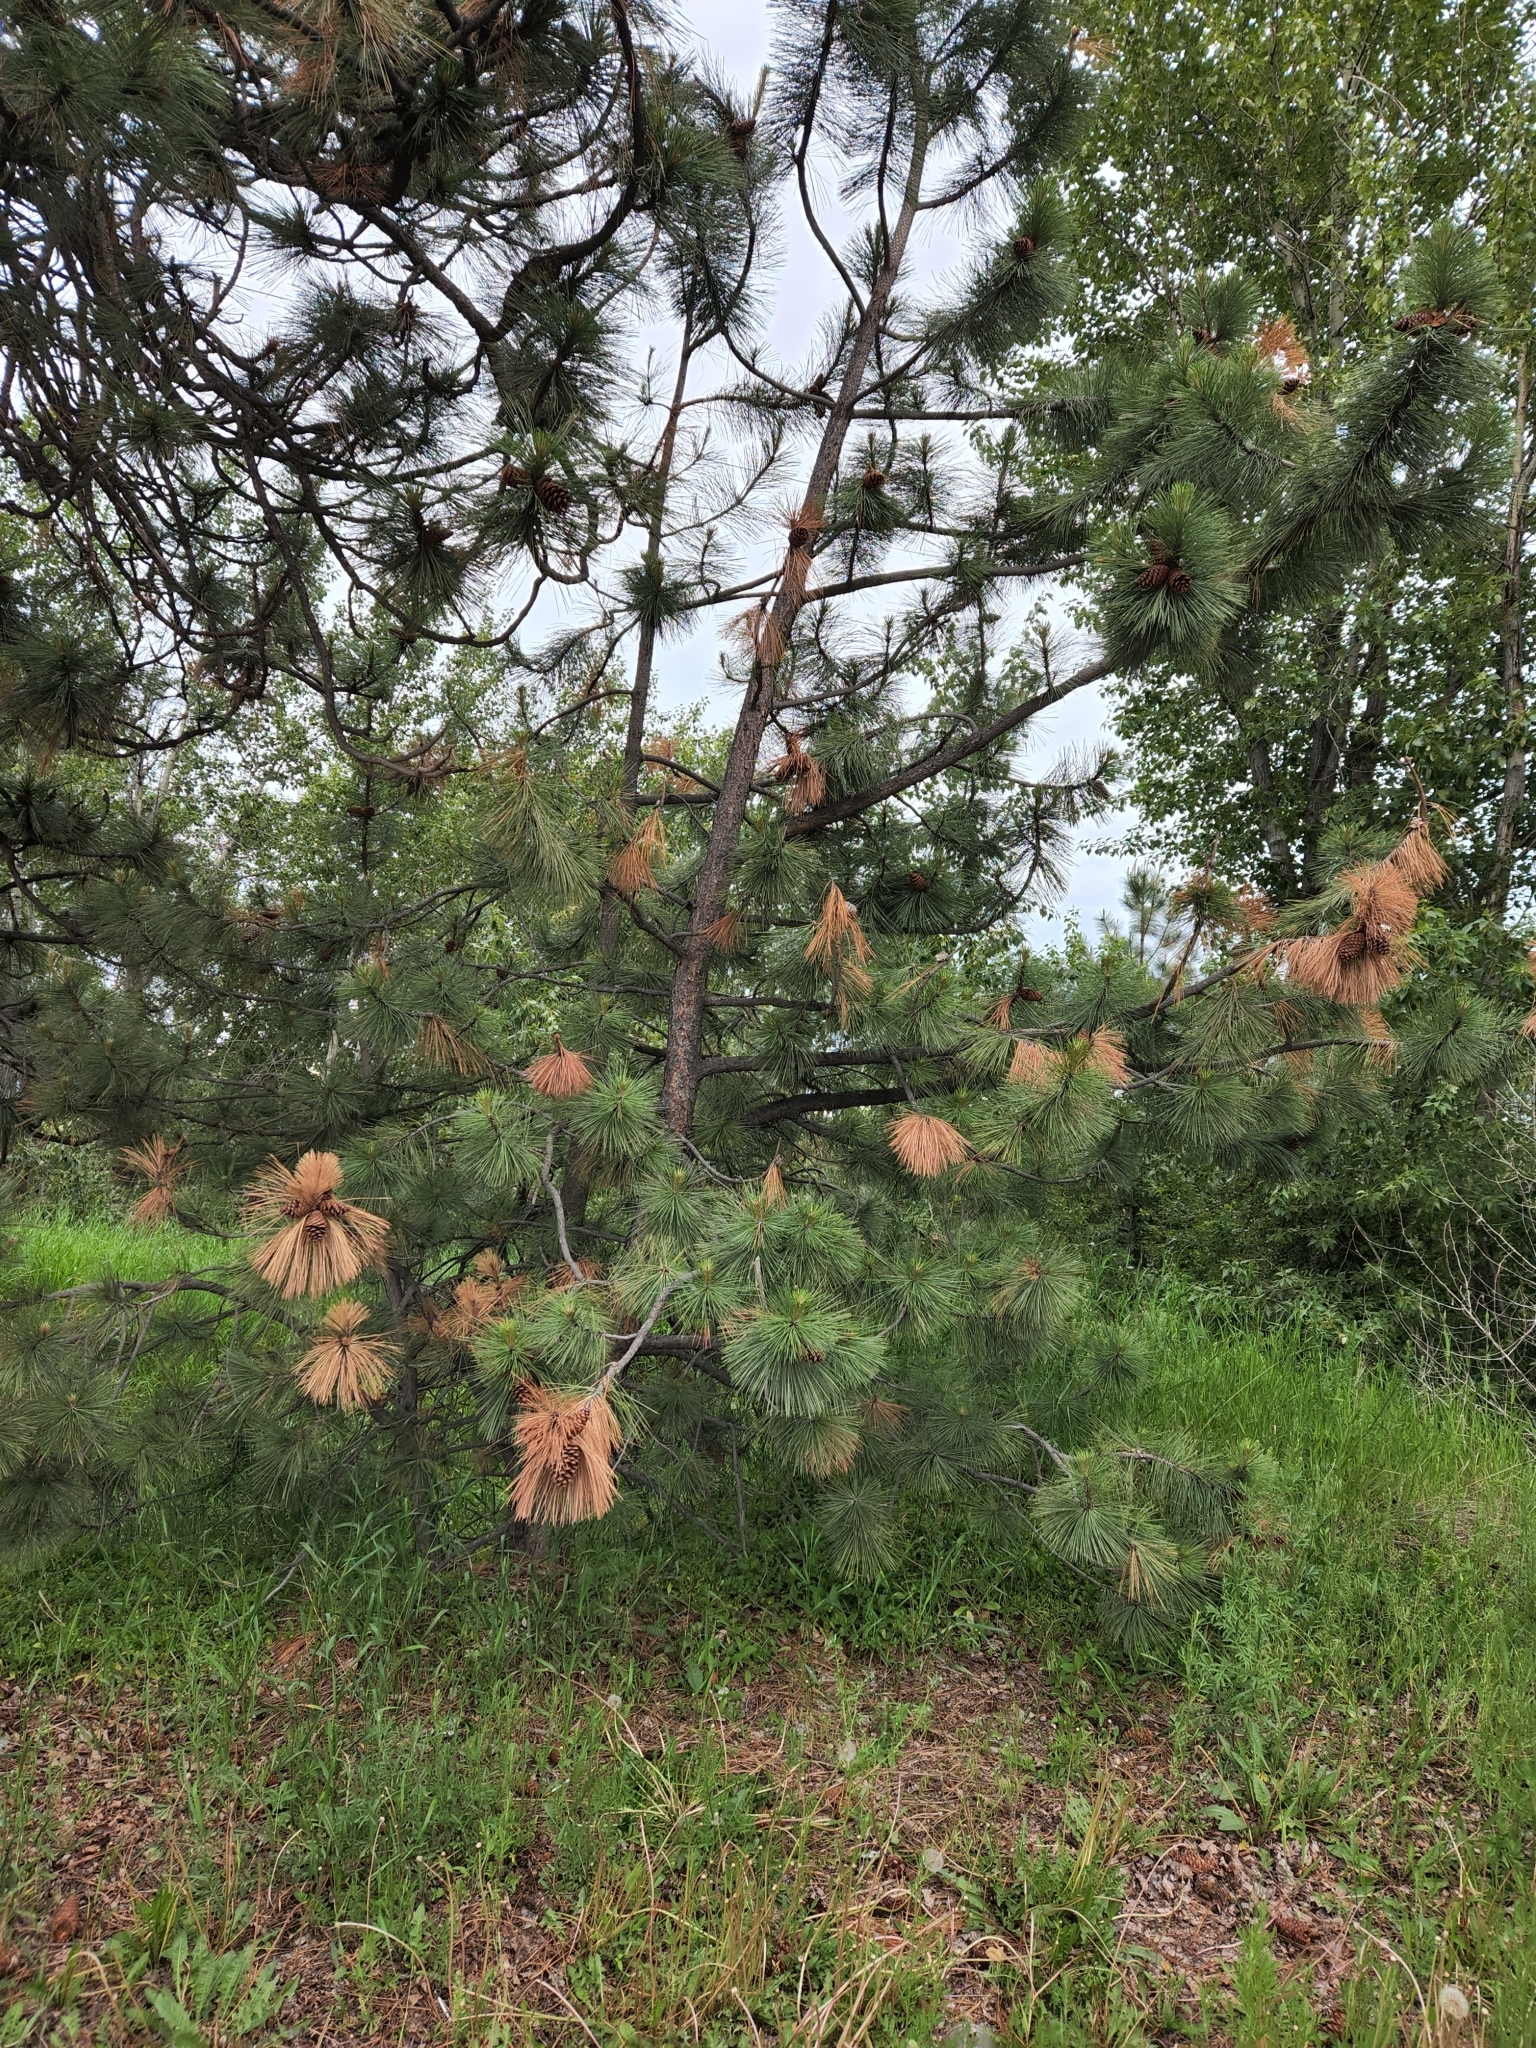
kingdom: Plantae
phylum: Tracheophyta
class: Pinopsida
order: Pinales
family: Pinaceae
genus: Pinus
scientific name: Pinus ponderosa
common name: Western yellow-pine
